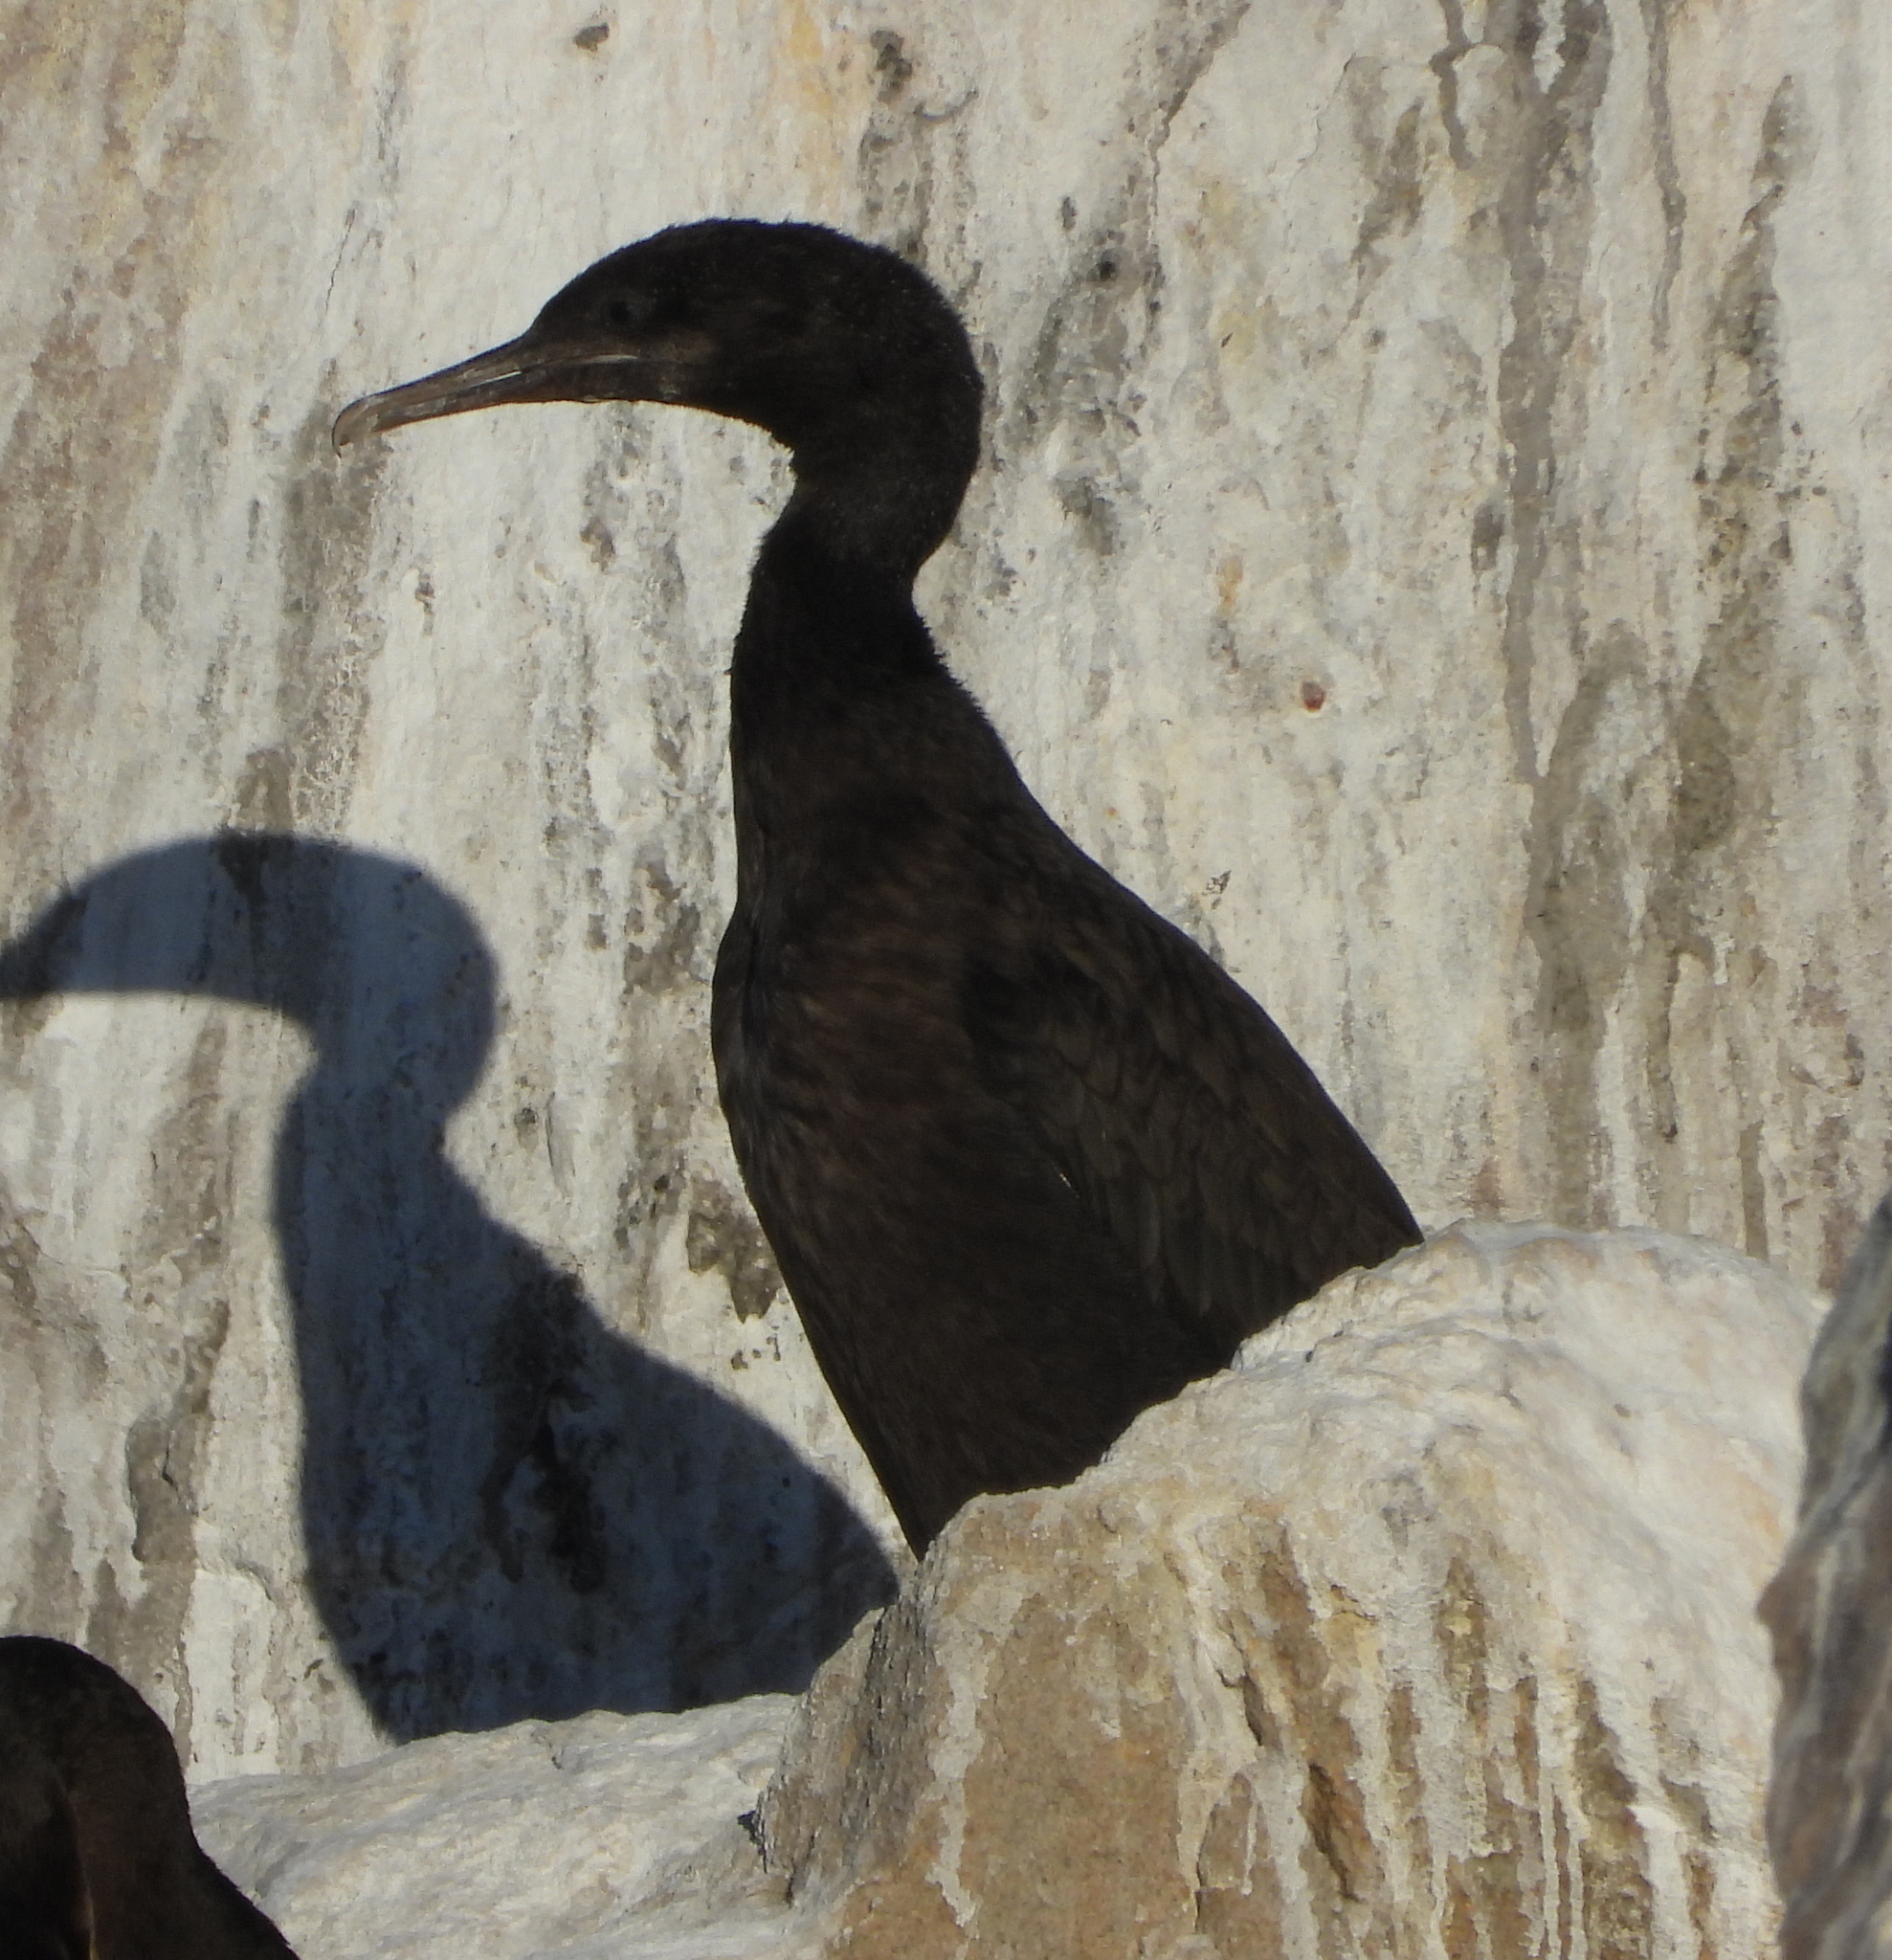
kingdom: Animalia
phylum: Chordata
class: Aves
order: Suliformes
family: Phalacrocoracidae
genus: Phalacrocorax
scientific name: Phalacrocorax neglectus
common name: Bank cormorant
